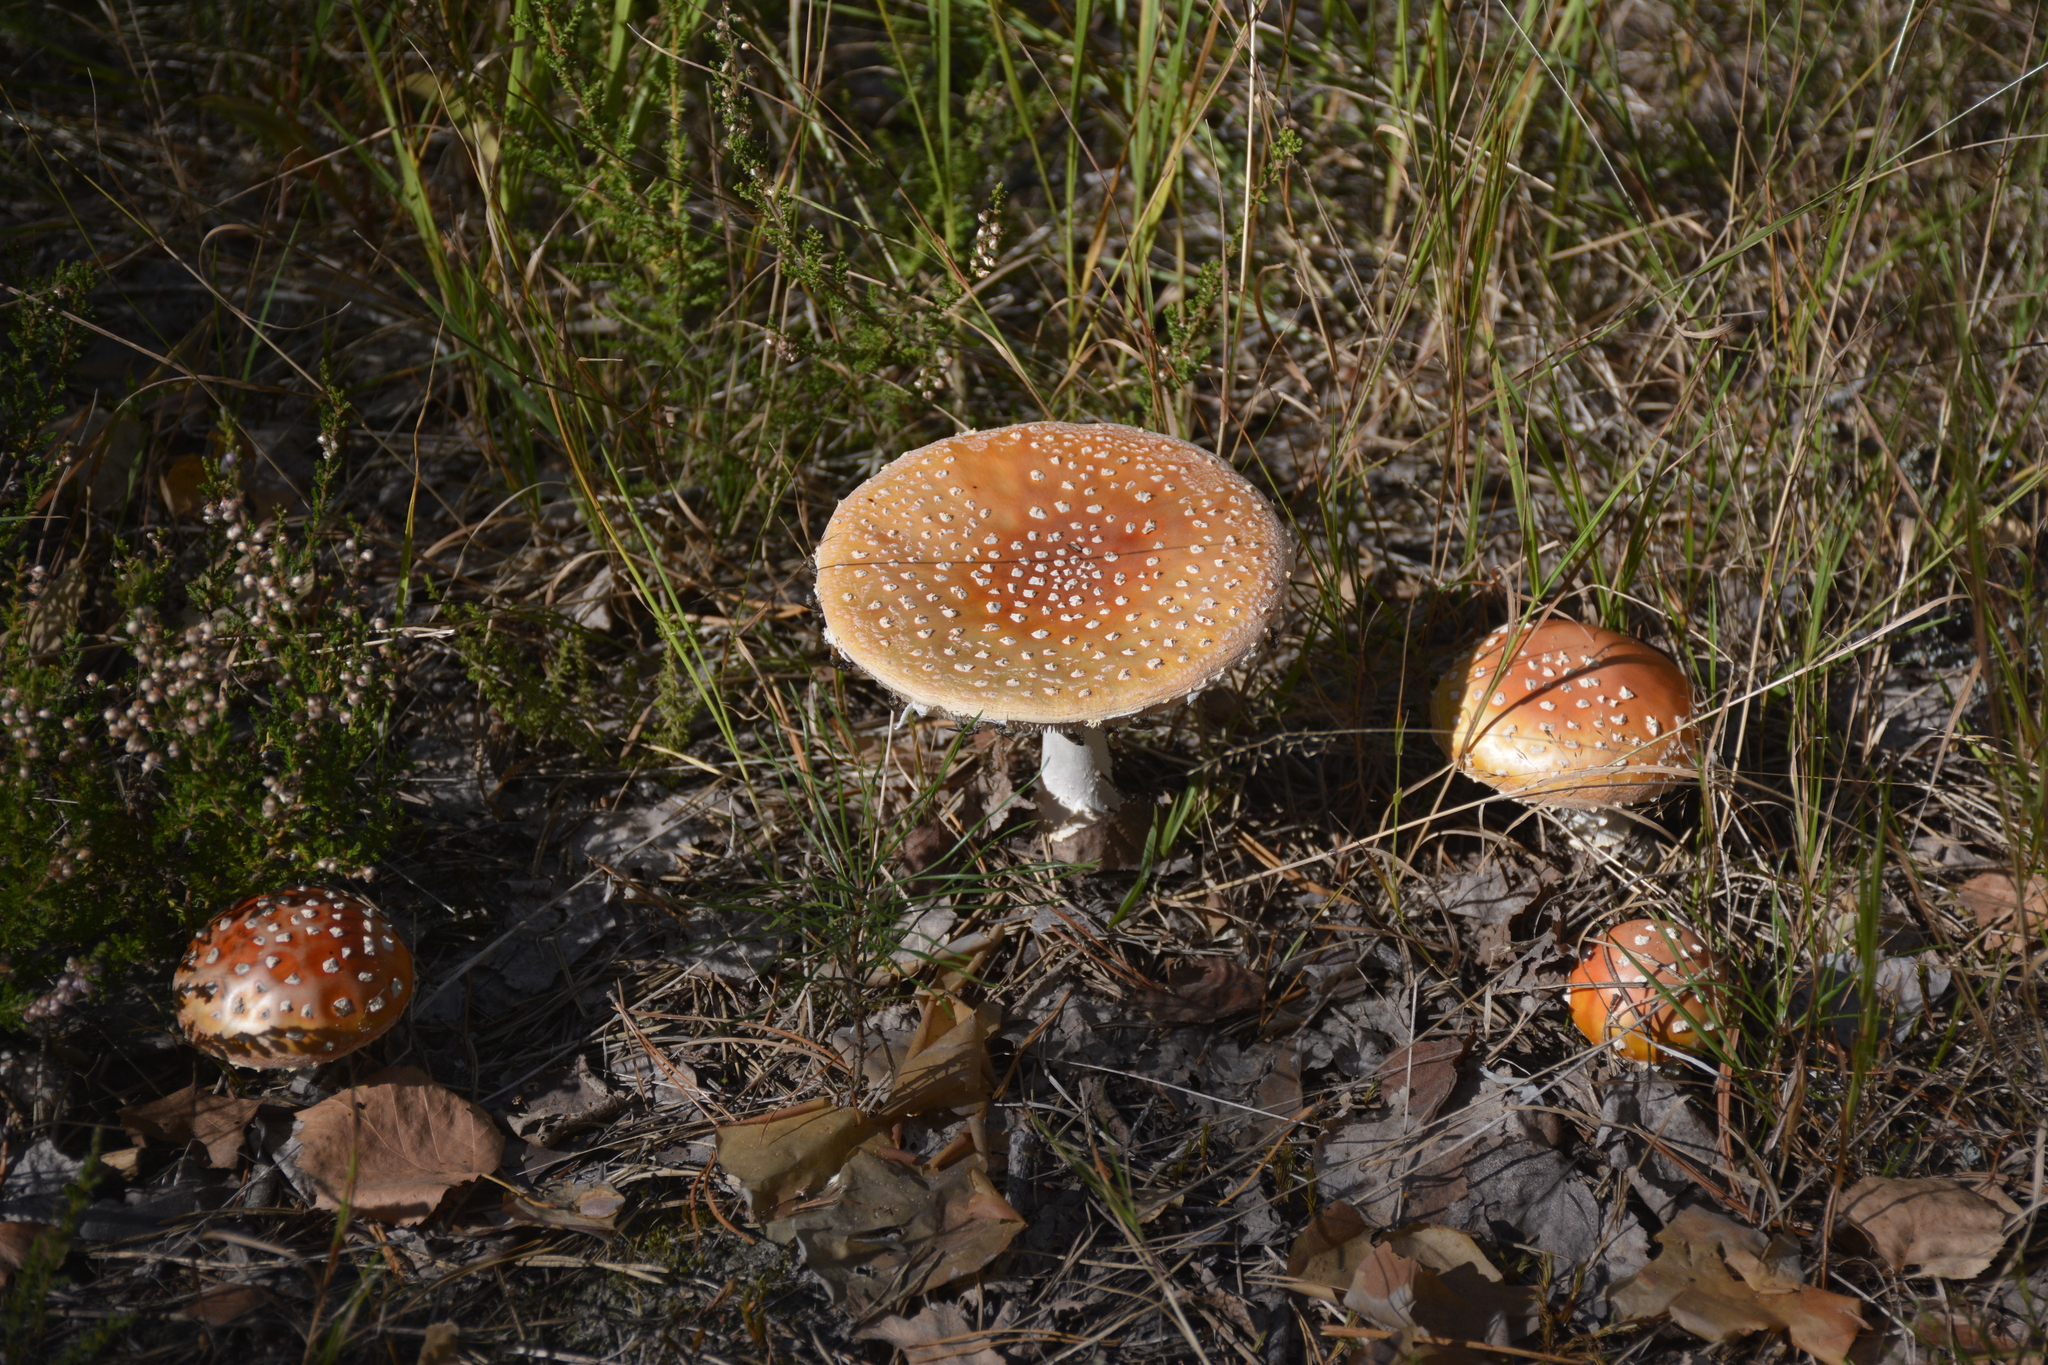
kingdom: Fungi
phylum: Basidiomycota
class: Agaricomycetes
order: Agaricales
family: Amanitaceae
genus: Amanita
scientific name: Amanita muscaria
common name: Fly agaric
